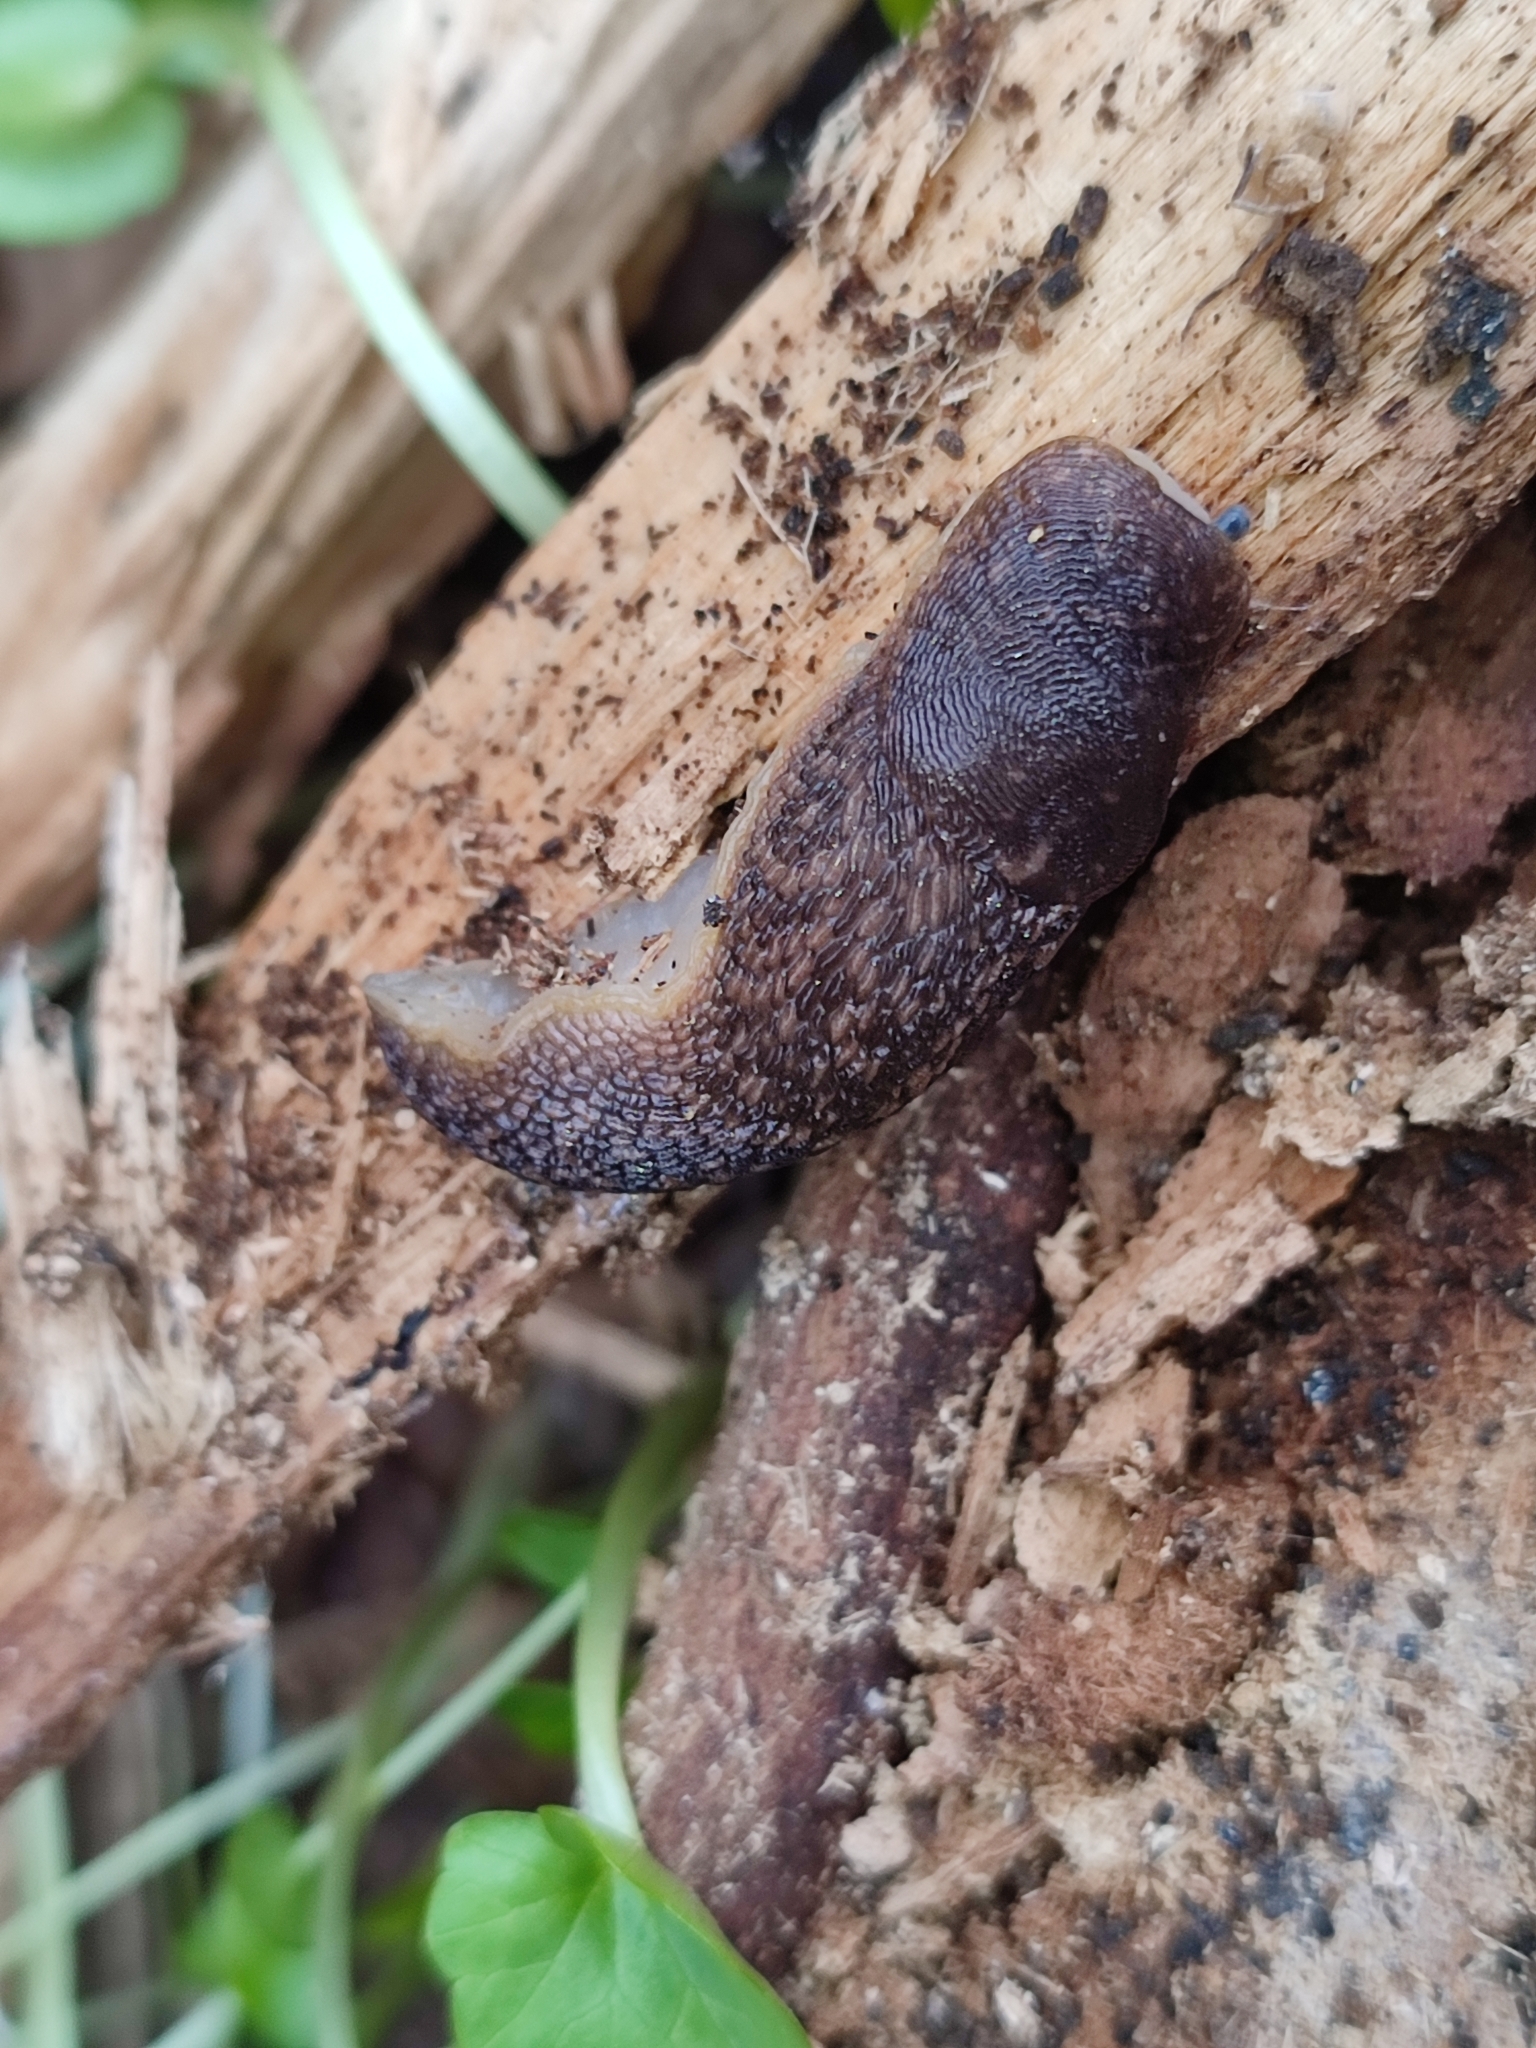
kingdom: Animalia
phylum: Mollusca
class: Gastropoda
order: Stylommatophora
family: Limacidae
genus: Limacus
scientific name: Limacus
